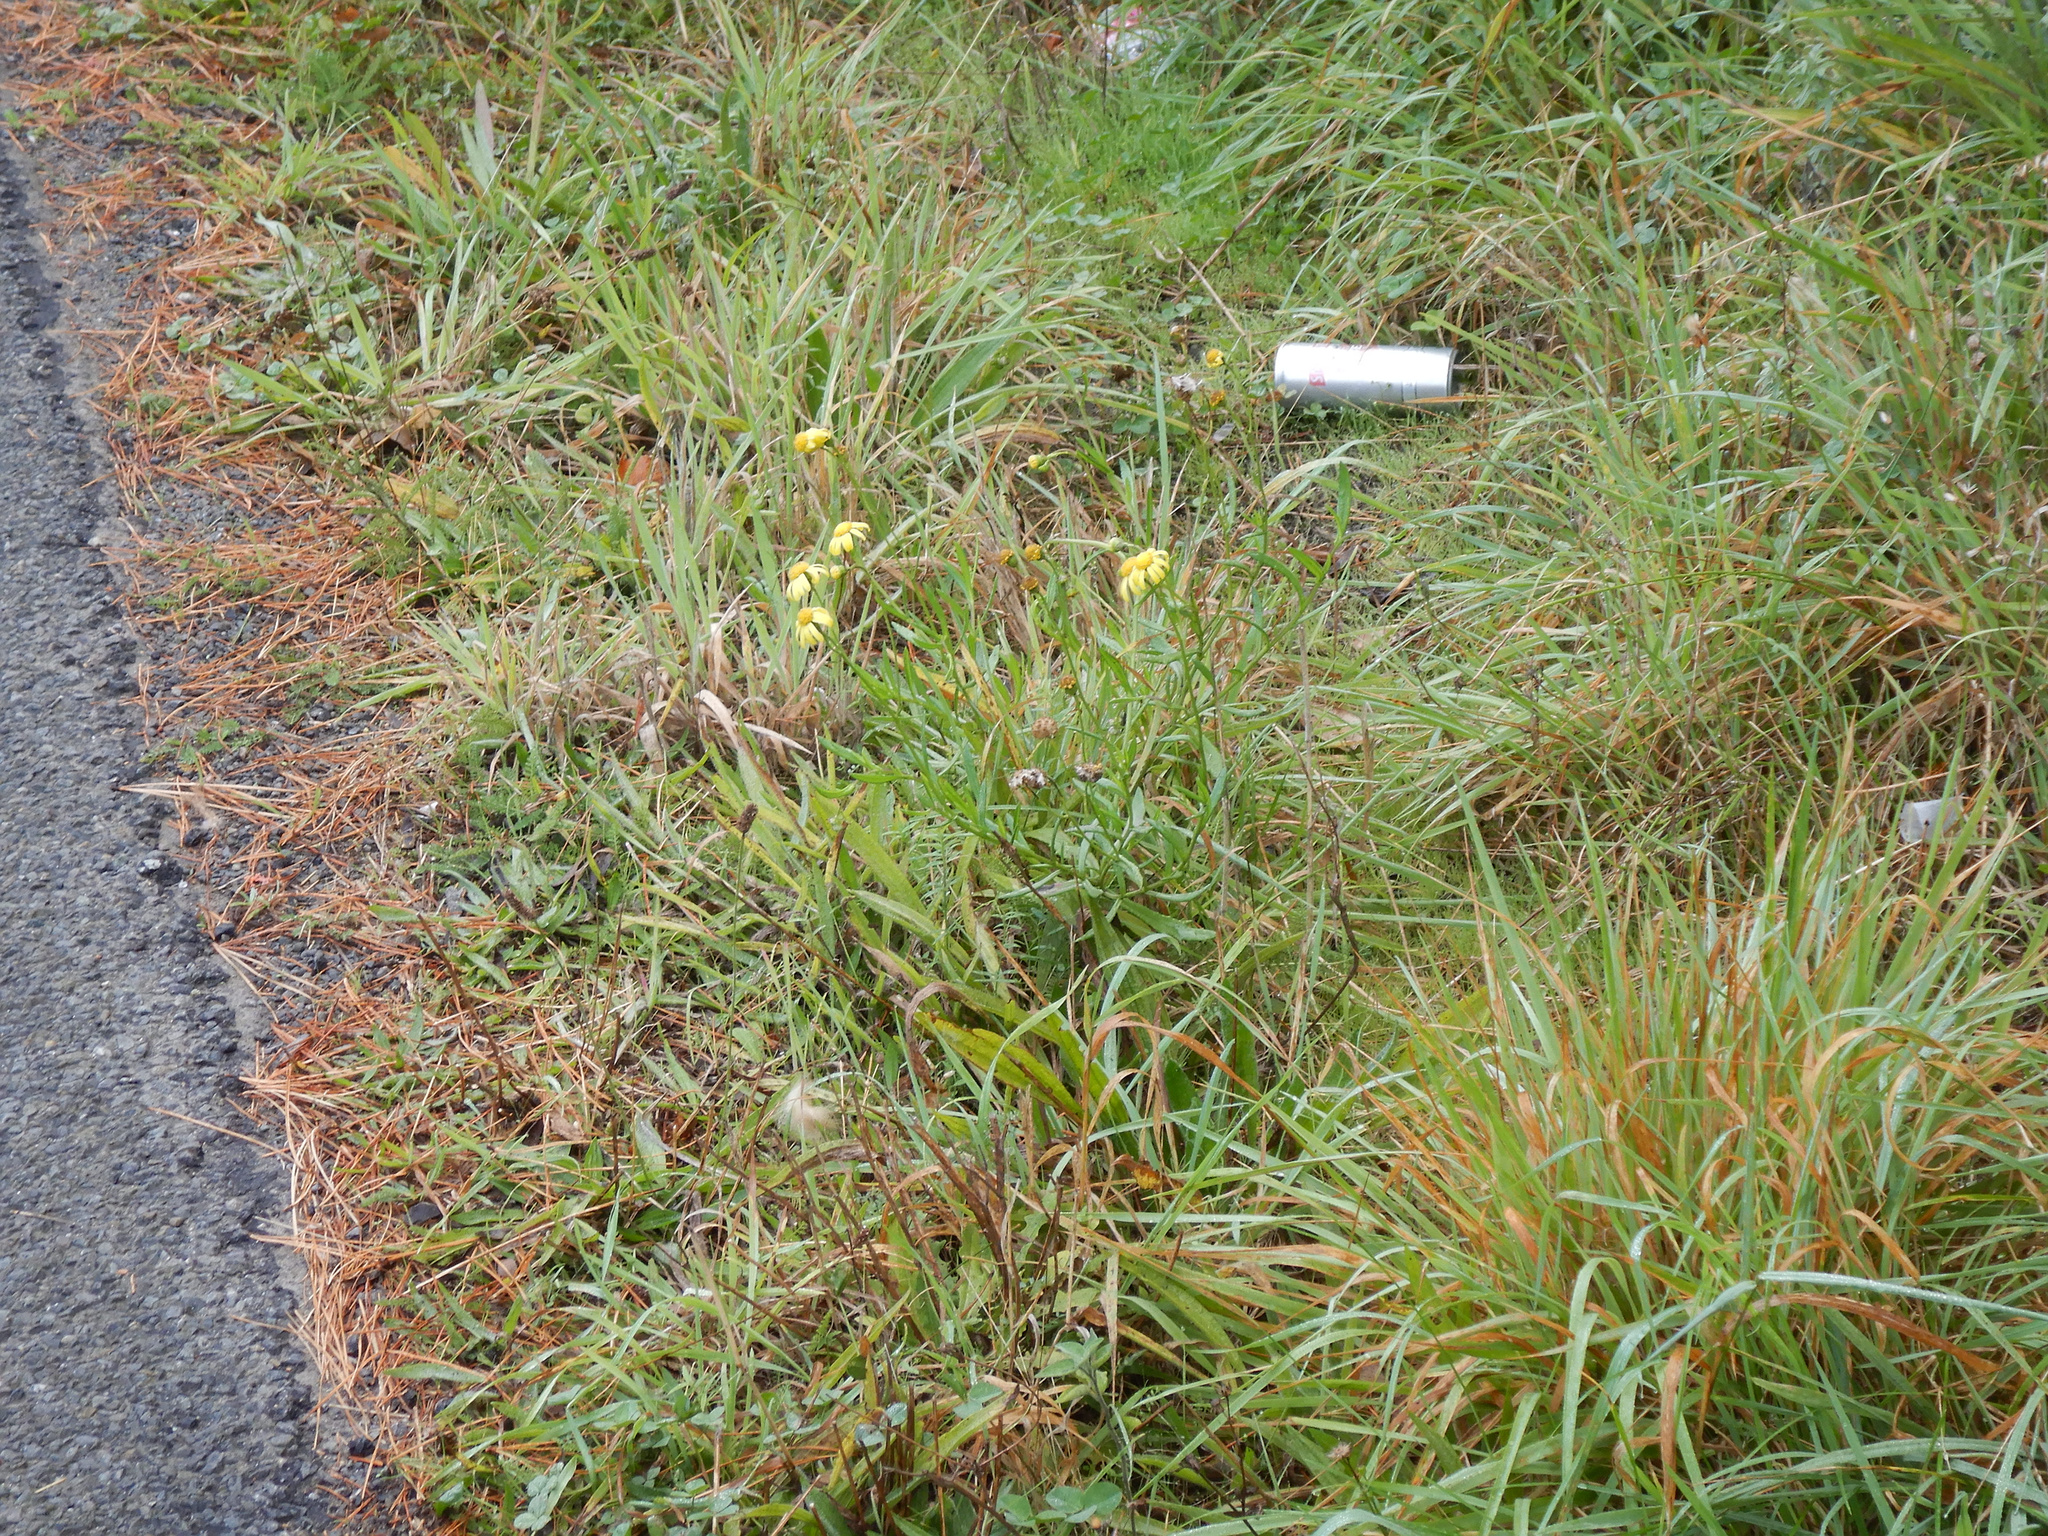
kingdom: Plantae
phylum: Tracheophyta
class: Magnoliopsida
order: Asterales
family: Asteraceae
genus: Senecio
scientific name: Senecio skirrhodon
